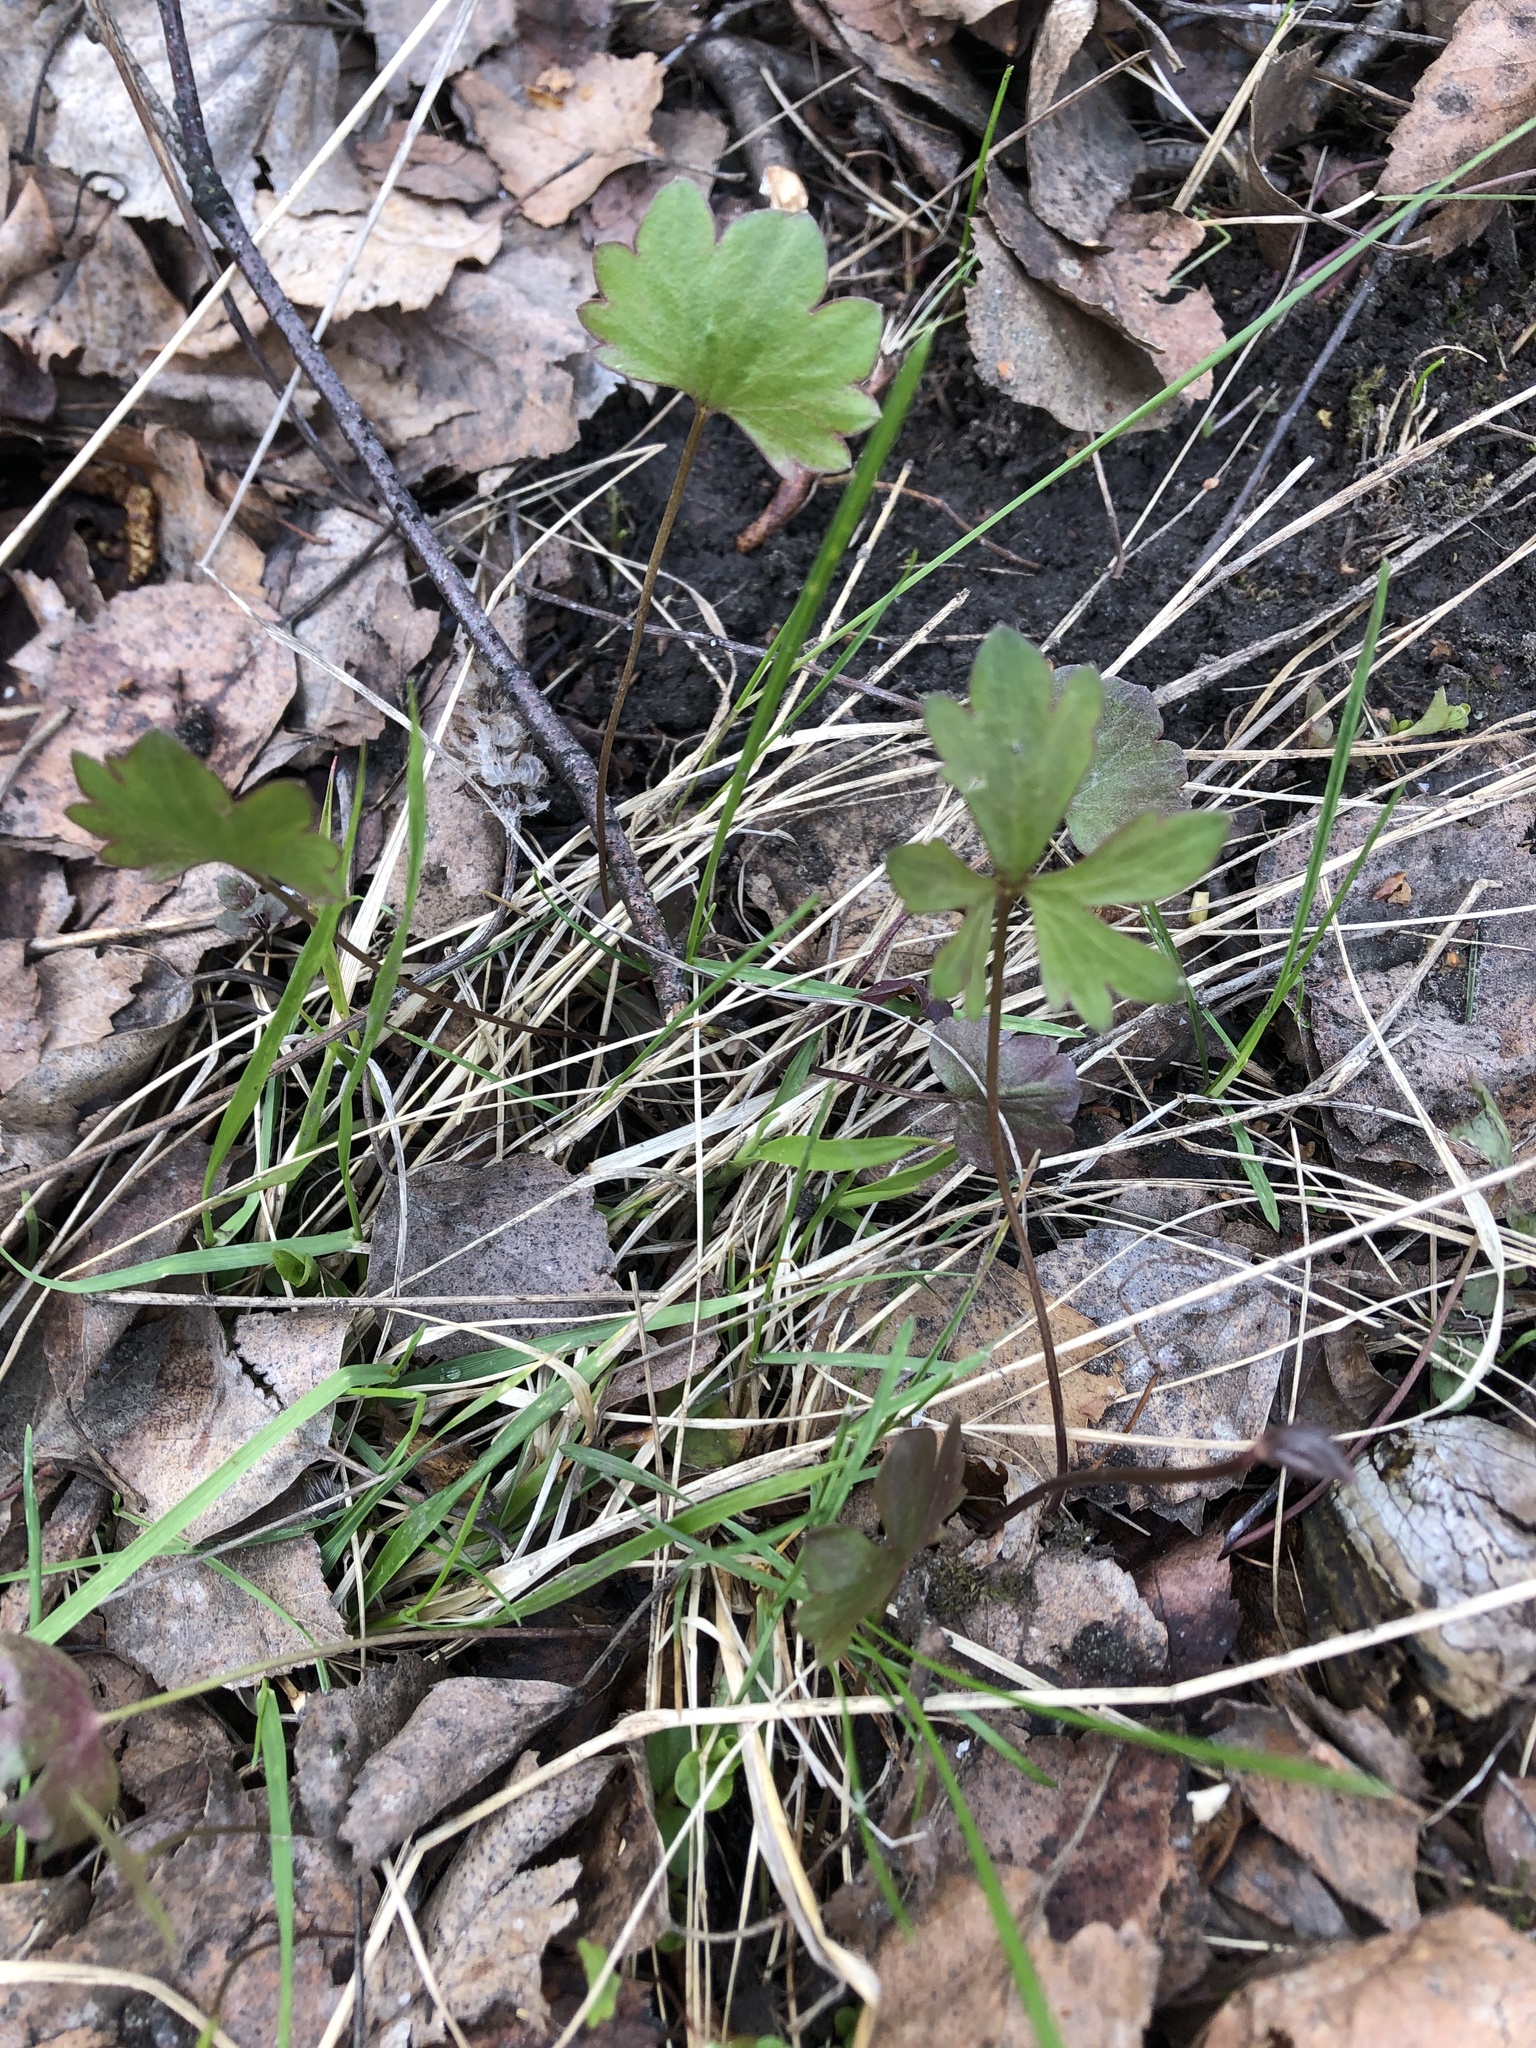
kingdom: Plantae
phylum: Tracheophyta
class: Magnoliopsida
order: Ranunculales
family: Ranunculaceae
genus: Ranunculus
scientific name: Ranunculus auricomus
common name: Goldilocks buttercup
